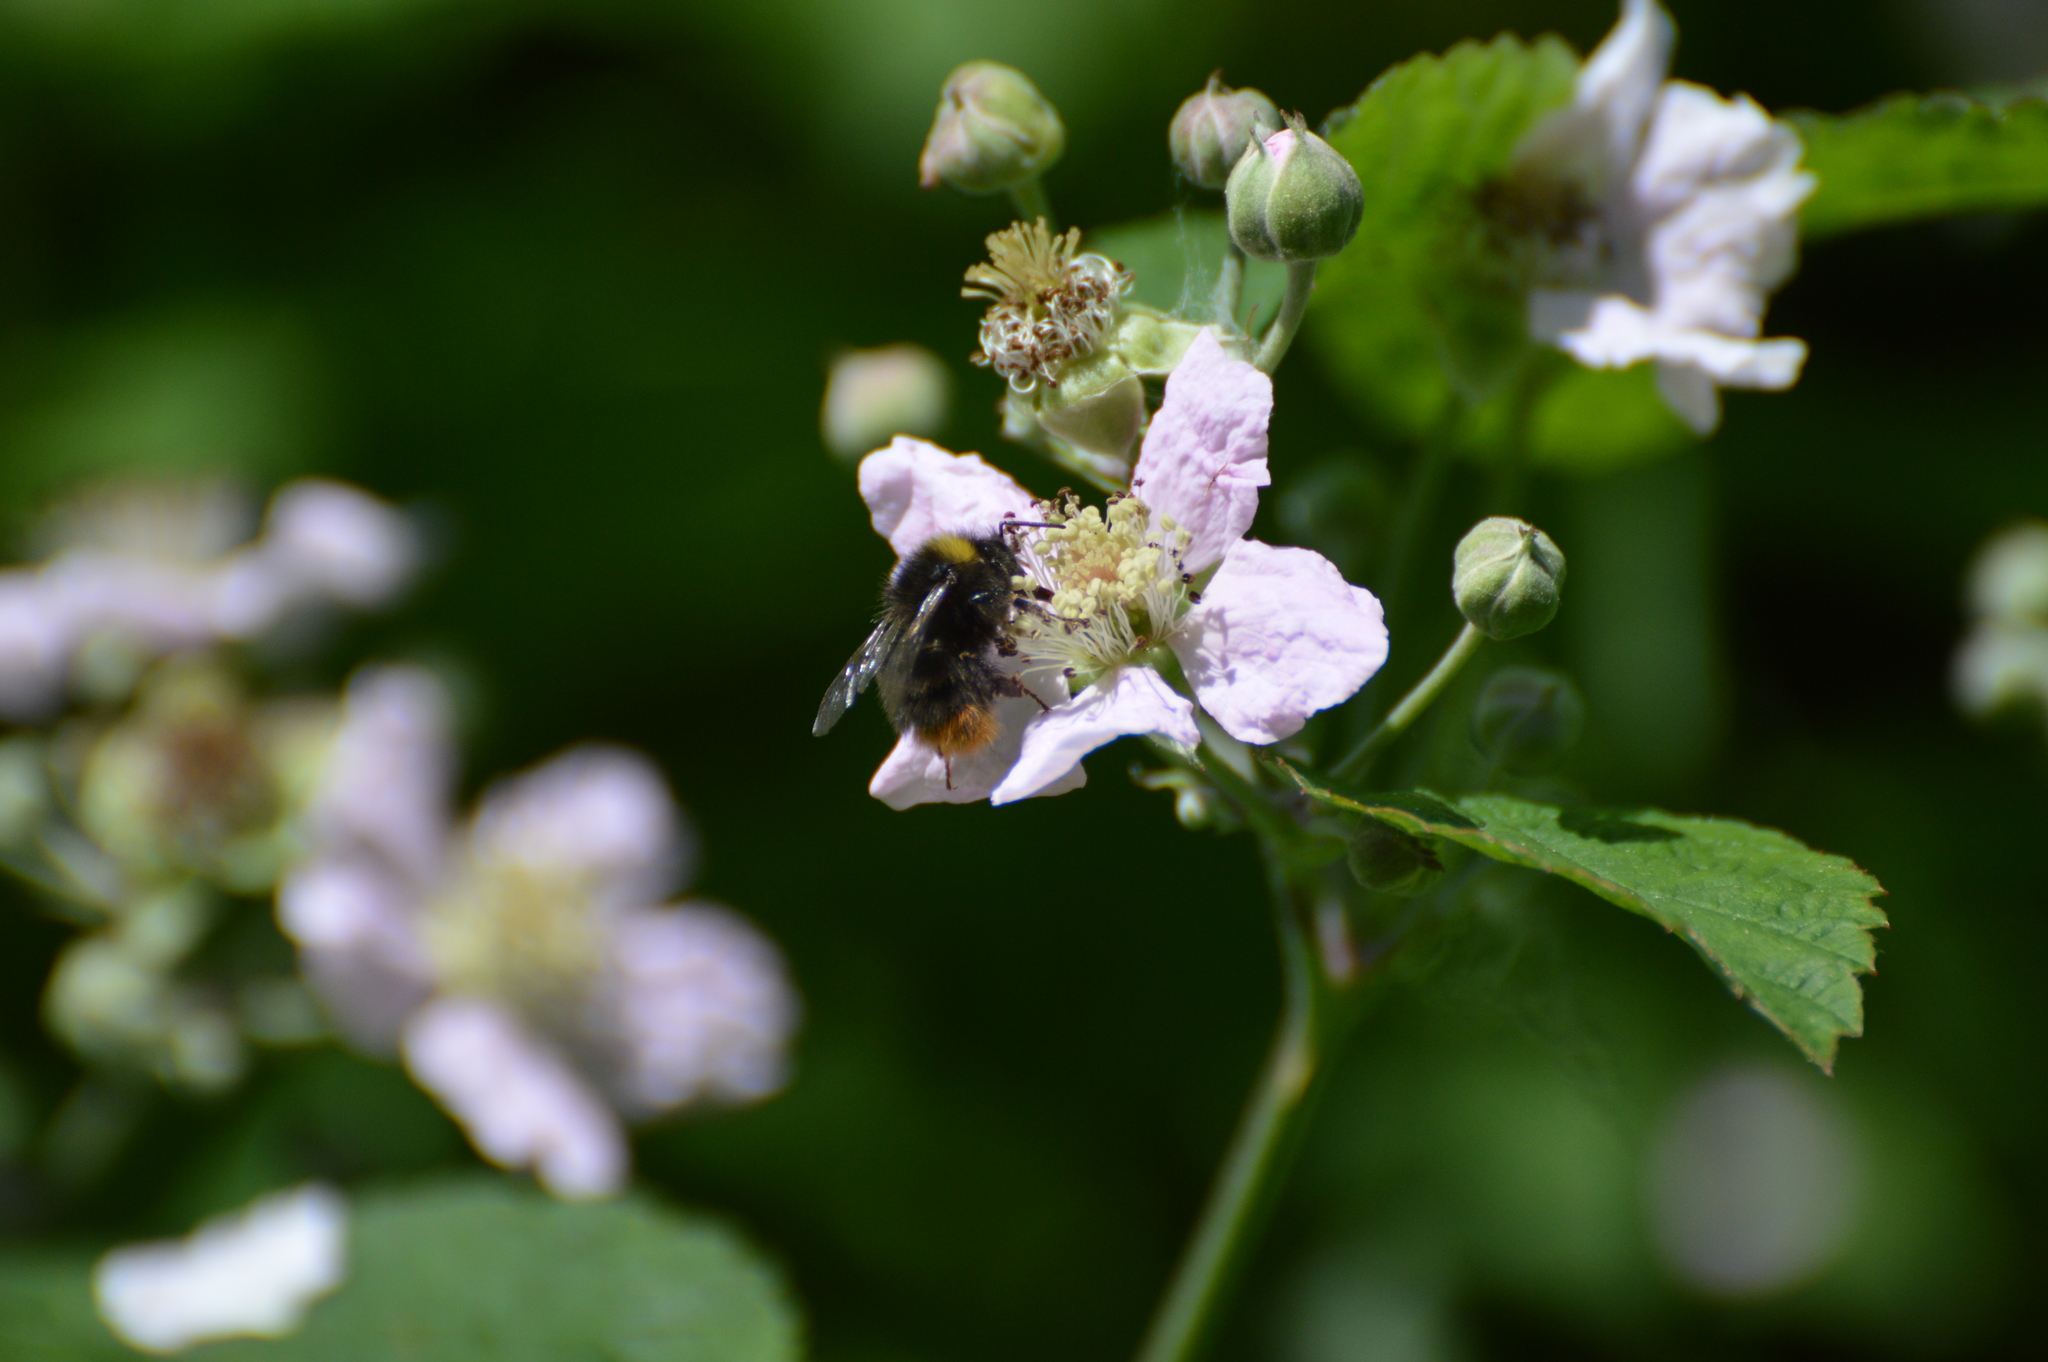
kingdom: Animalia
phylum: Arthropoda
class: Insecta
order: Hymenoptera
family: Apidae
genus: Bombus
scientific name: Bombus pratorum
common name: Early humble-bee
